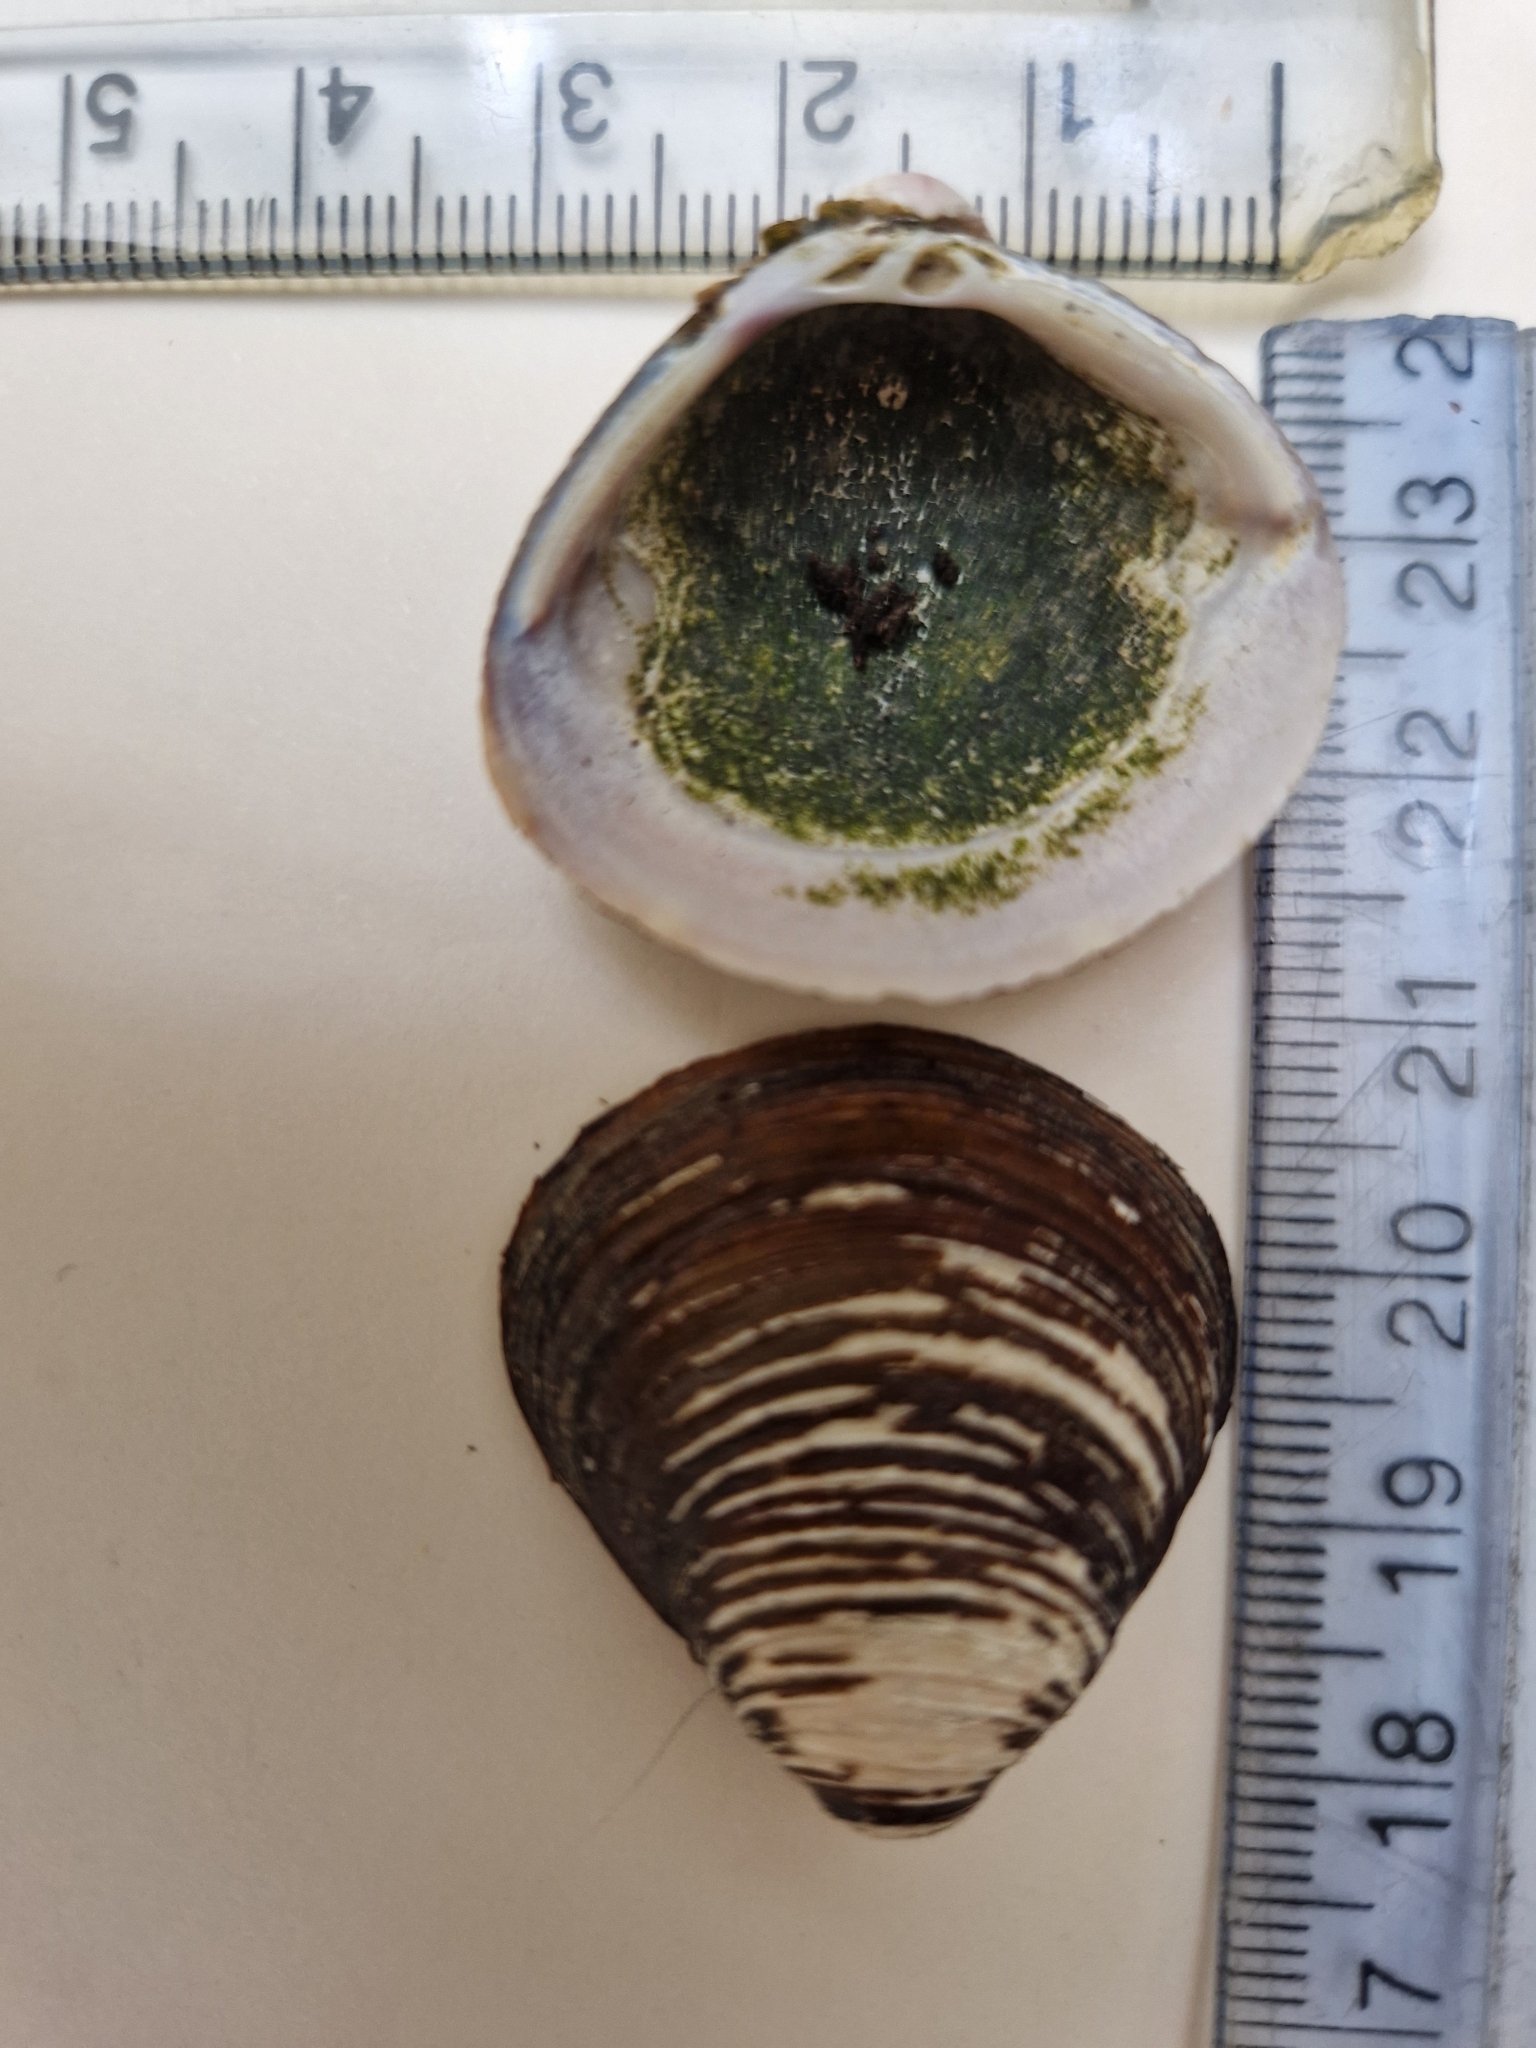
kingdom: Animalia
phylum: Mollusca
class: Bivalvia
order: Venerida
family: Cyrenidae
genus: Corbicula
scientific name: Corbicula fluminea
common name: Asian clam
